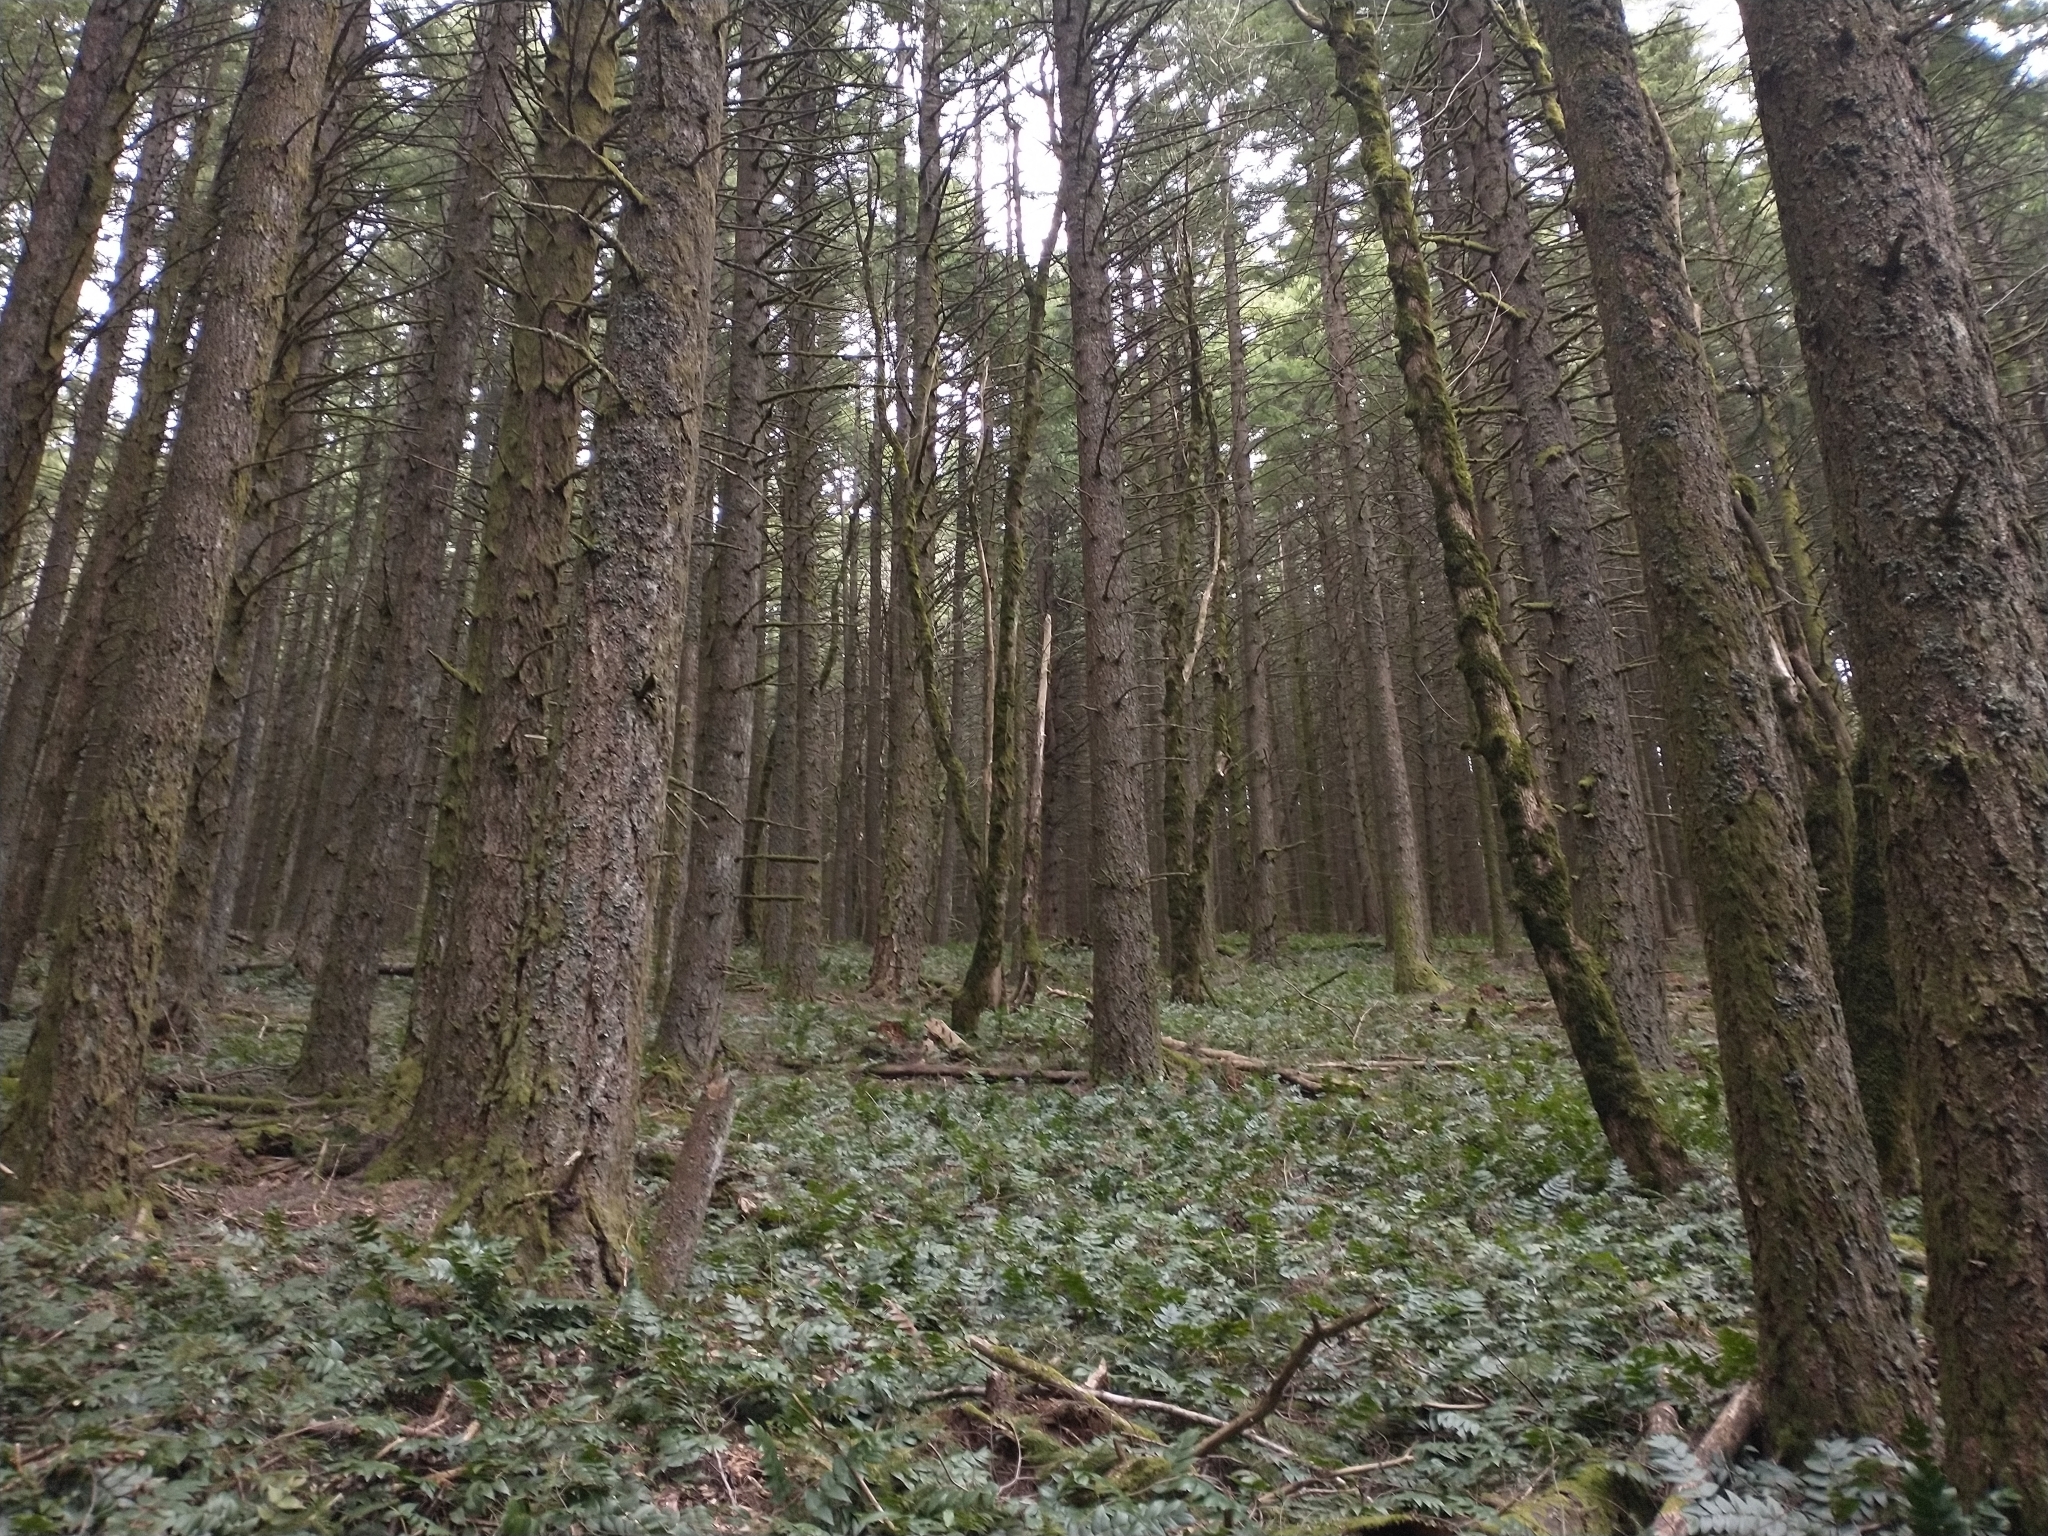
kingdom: Plantae
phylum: Tracheophyta
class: Pinopsida
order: Pinales
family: Pinaceae
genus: Pseudotsuga
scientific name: Pseudotsuga menziesii
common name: Douglas fir
